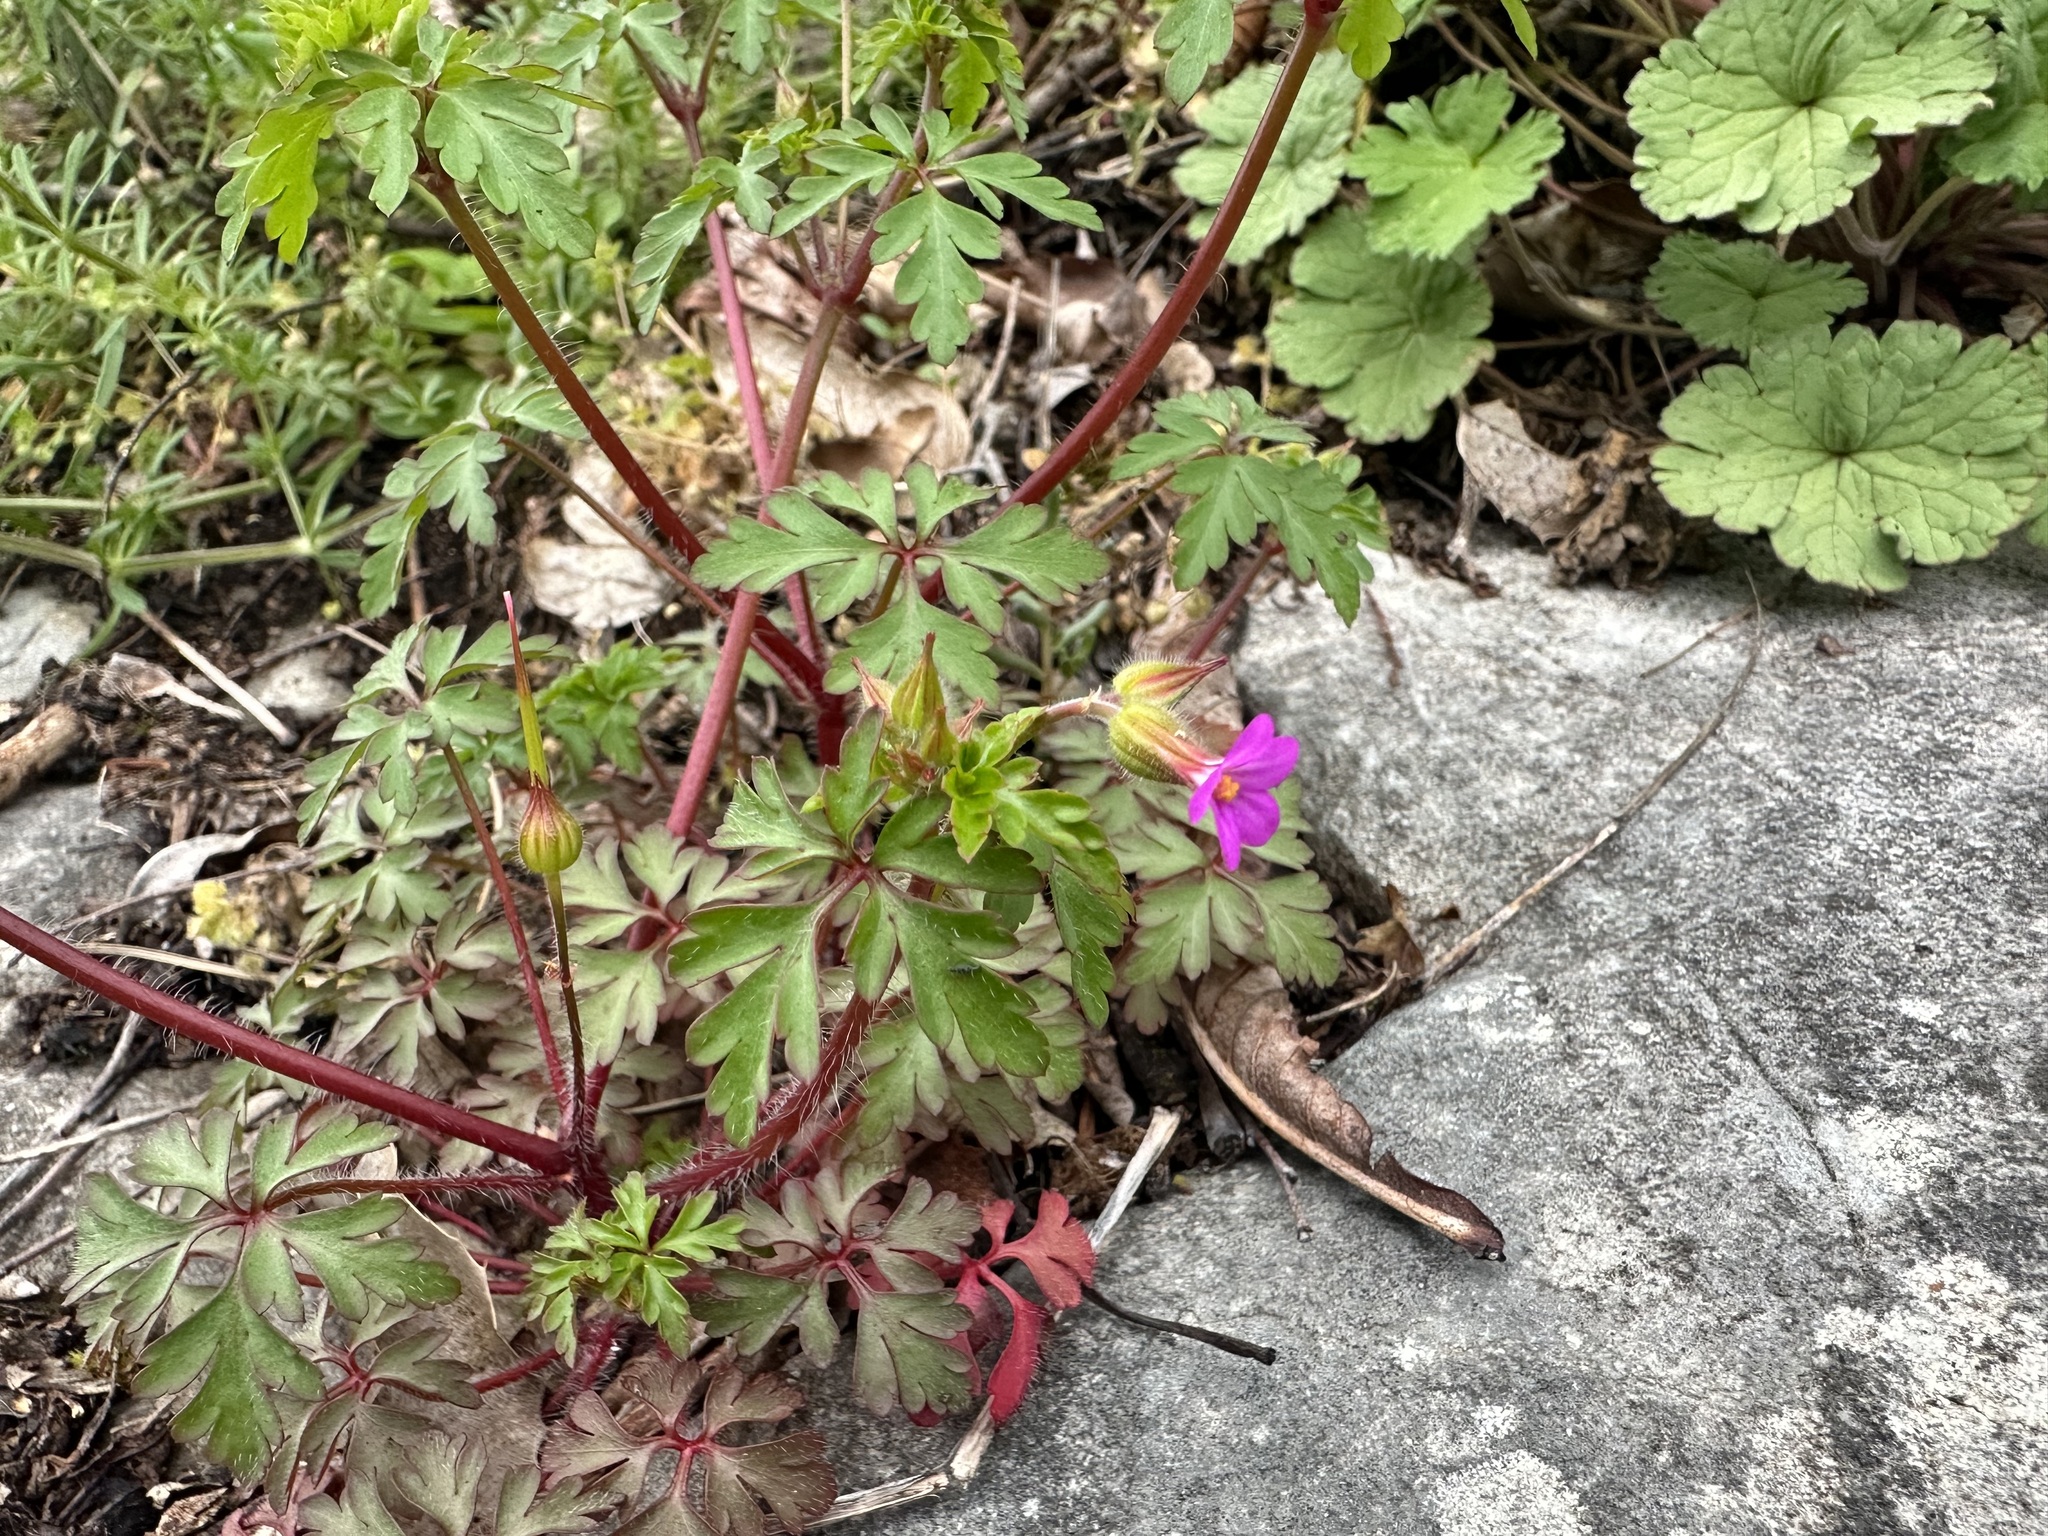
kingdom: Plantae
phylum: Tracheophyta
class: Magnoliopsida
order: Geraniales
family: Geraniaceae
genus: Geranium
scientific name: Geranium robertianum
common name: Herb-robert
